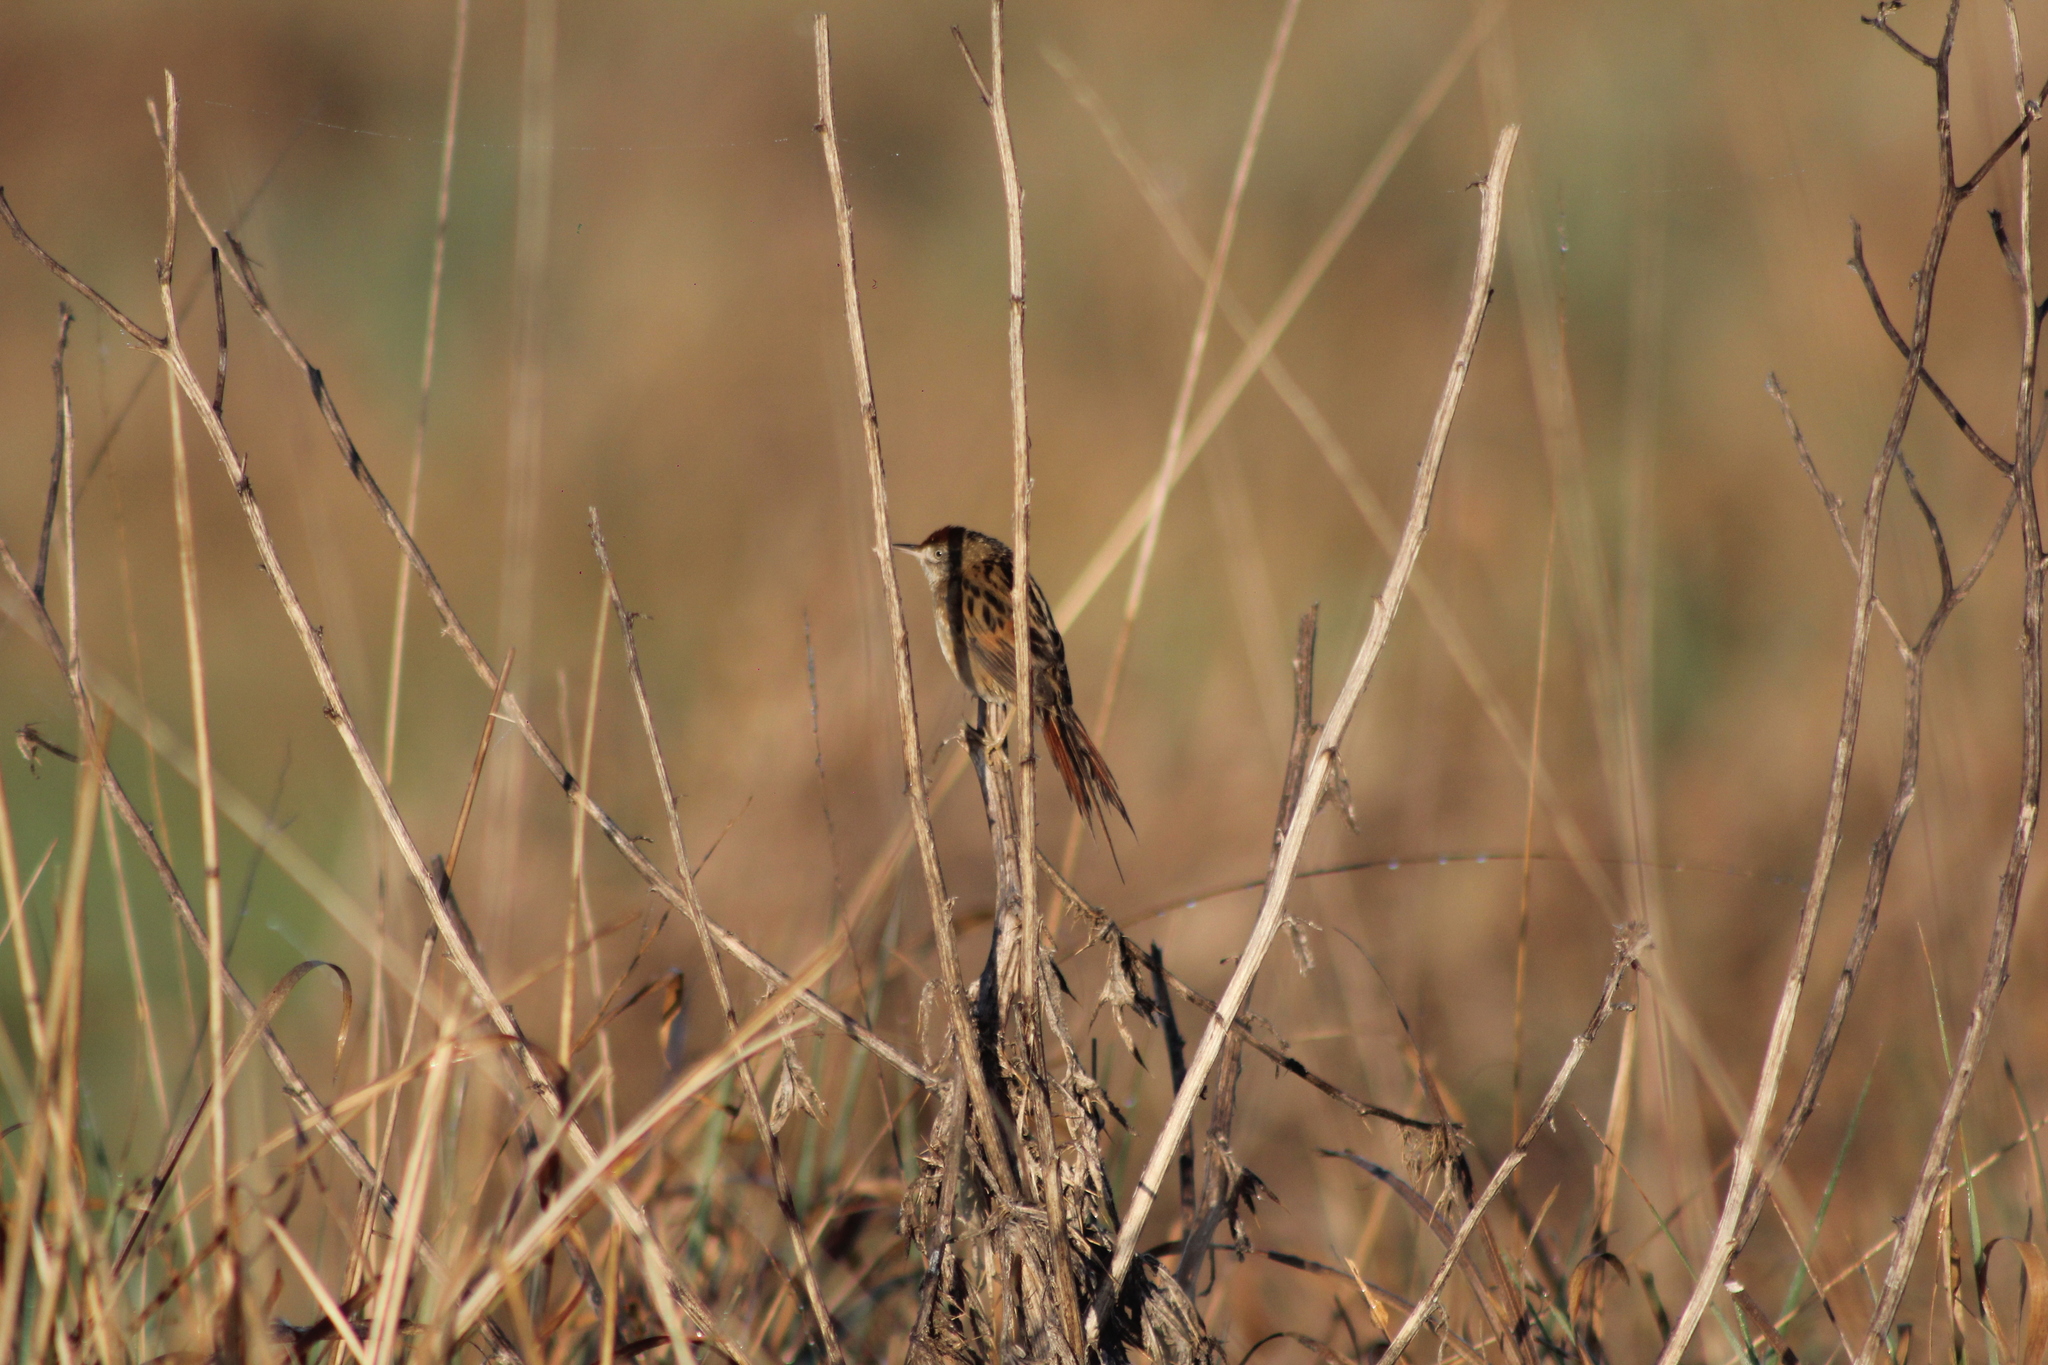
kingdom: Animalia
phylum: Chordata
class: Aves
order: Passeriformes
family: Furnariidae
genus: Spartonoica
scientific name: Spartonoica maluroides
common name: Bay-capped wren-spinetail
